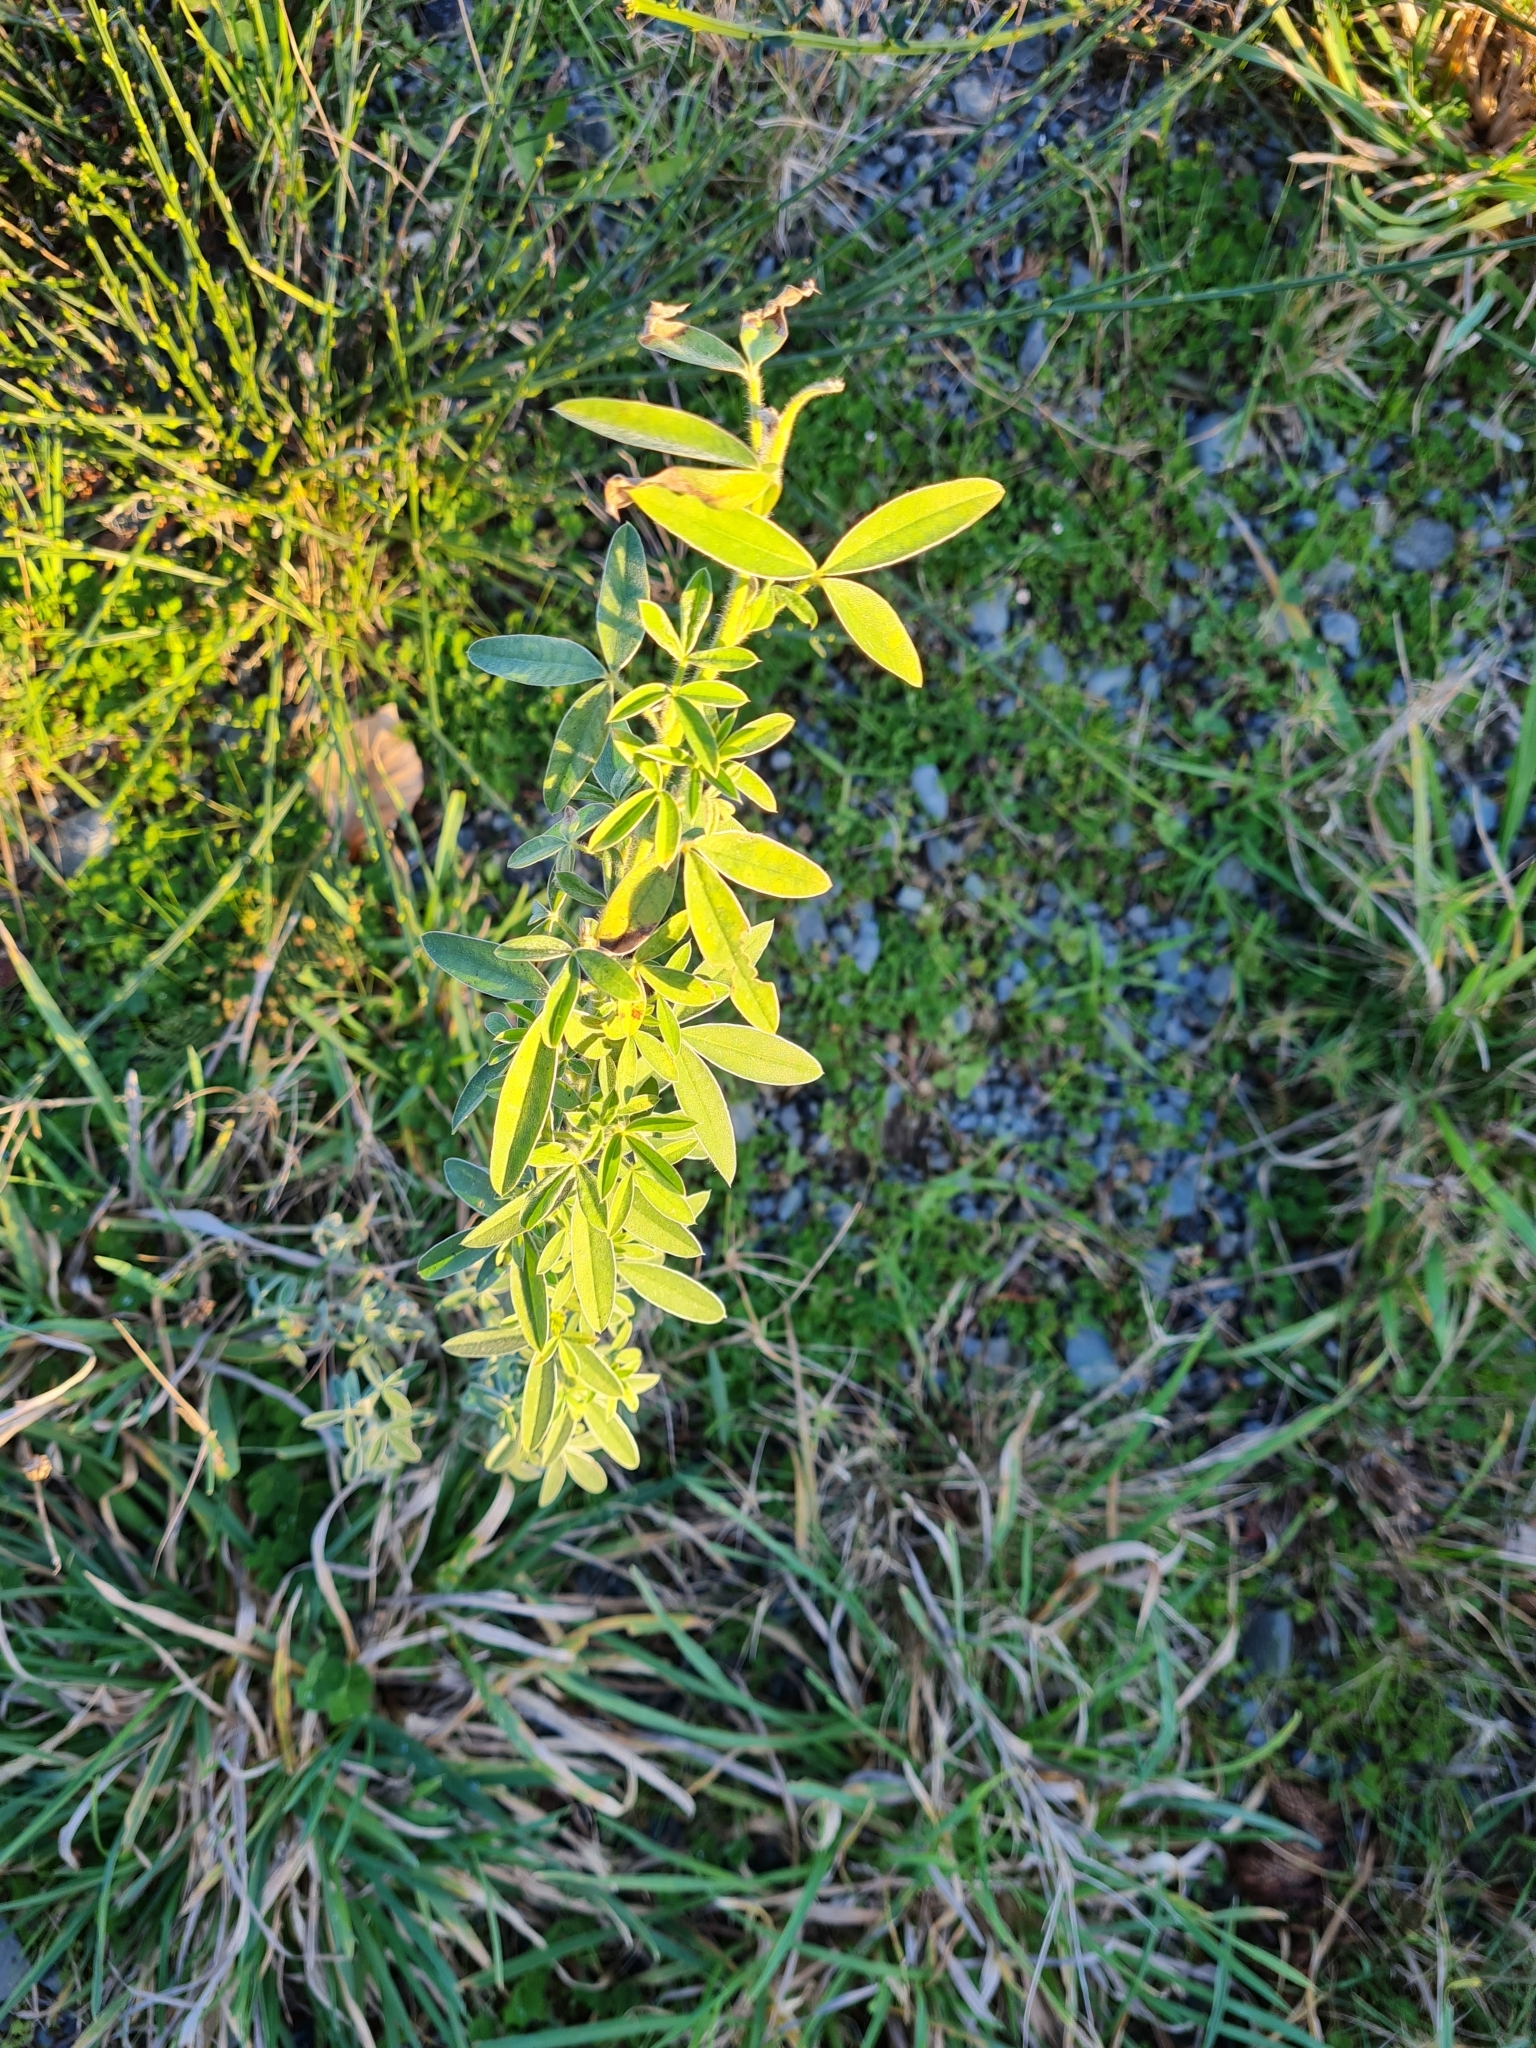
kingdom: Plantae
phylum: Tracheophyta
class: Magnoliopsida
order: Fabales
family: Fabaceae
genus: Chamaecytisus
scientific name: Chamaecytisus prolifer
